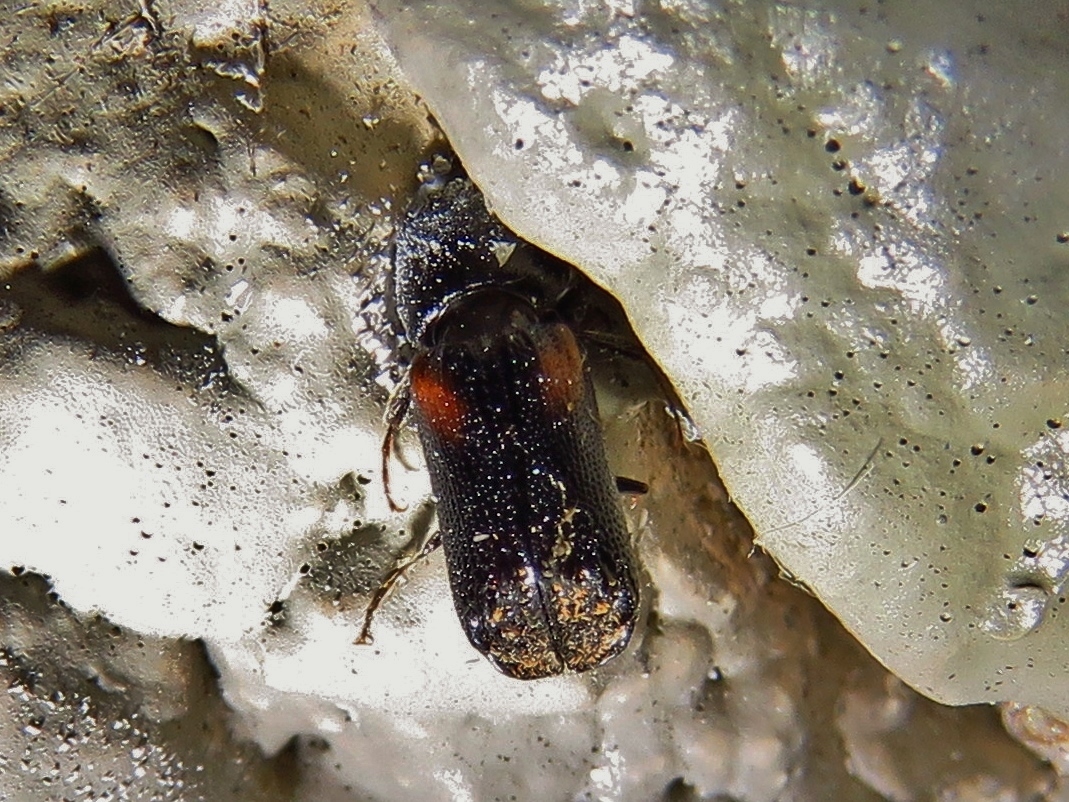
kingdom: Animalia
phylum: Arthropoda
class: Insecta
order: Coleoptera
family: Bostrichidae
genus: Xylobiops
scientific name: Xylobiops basilaris
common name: Red-shouldered bostrichid
